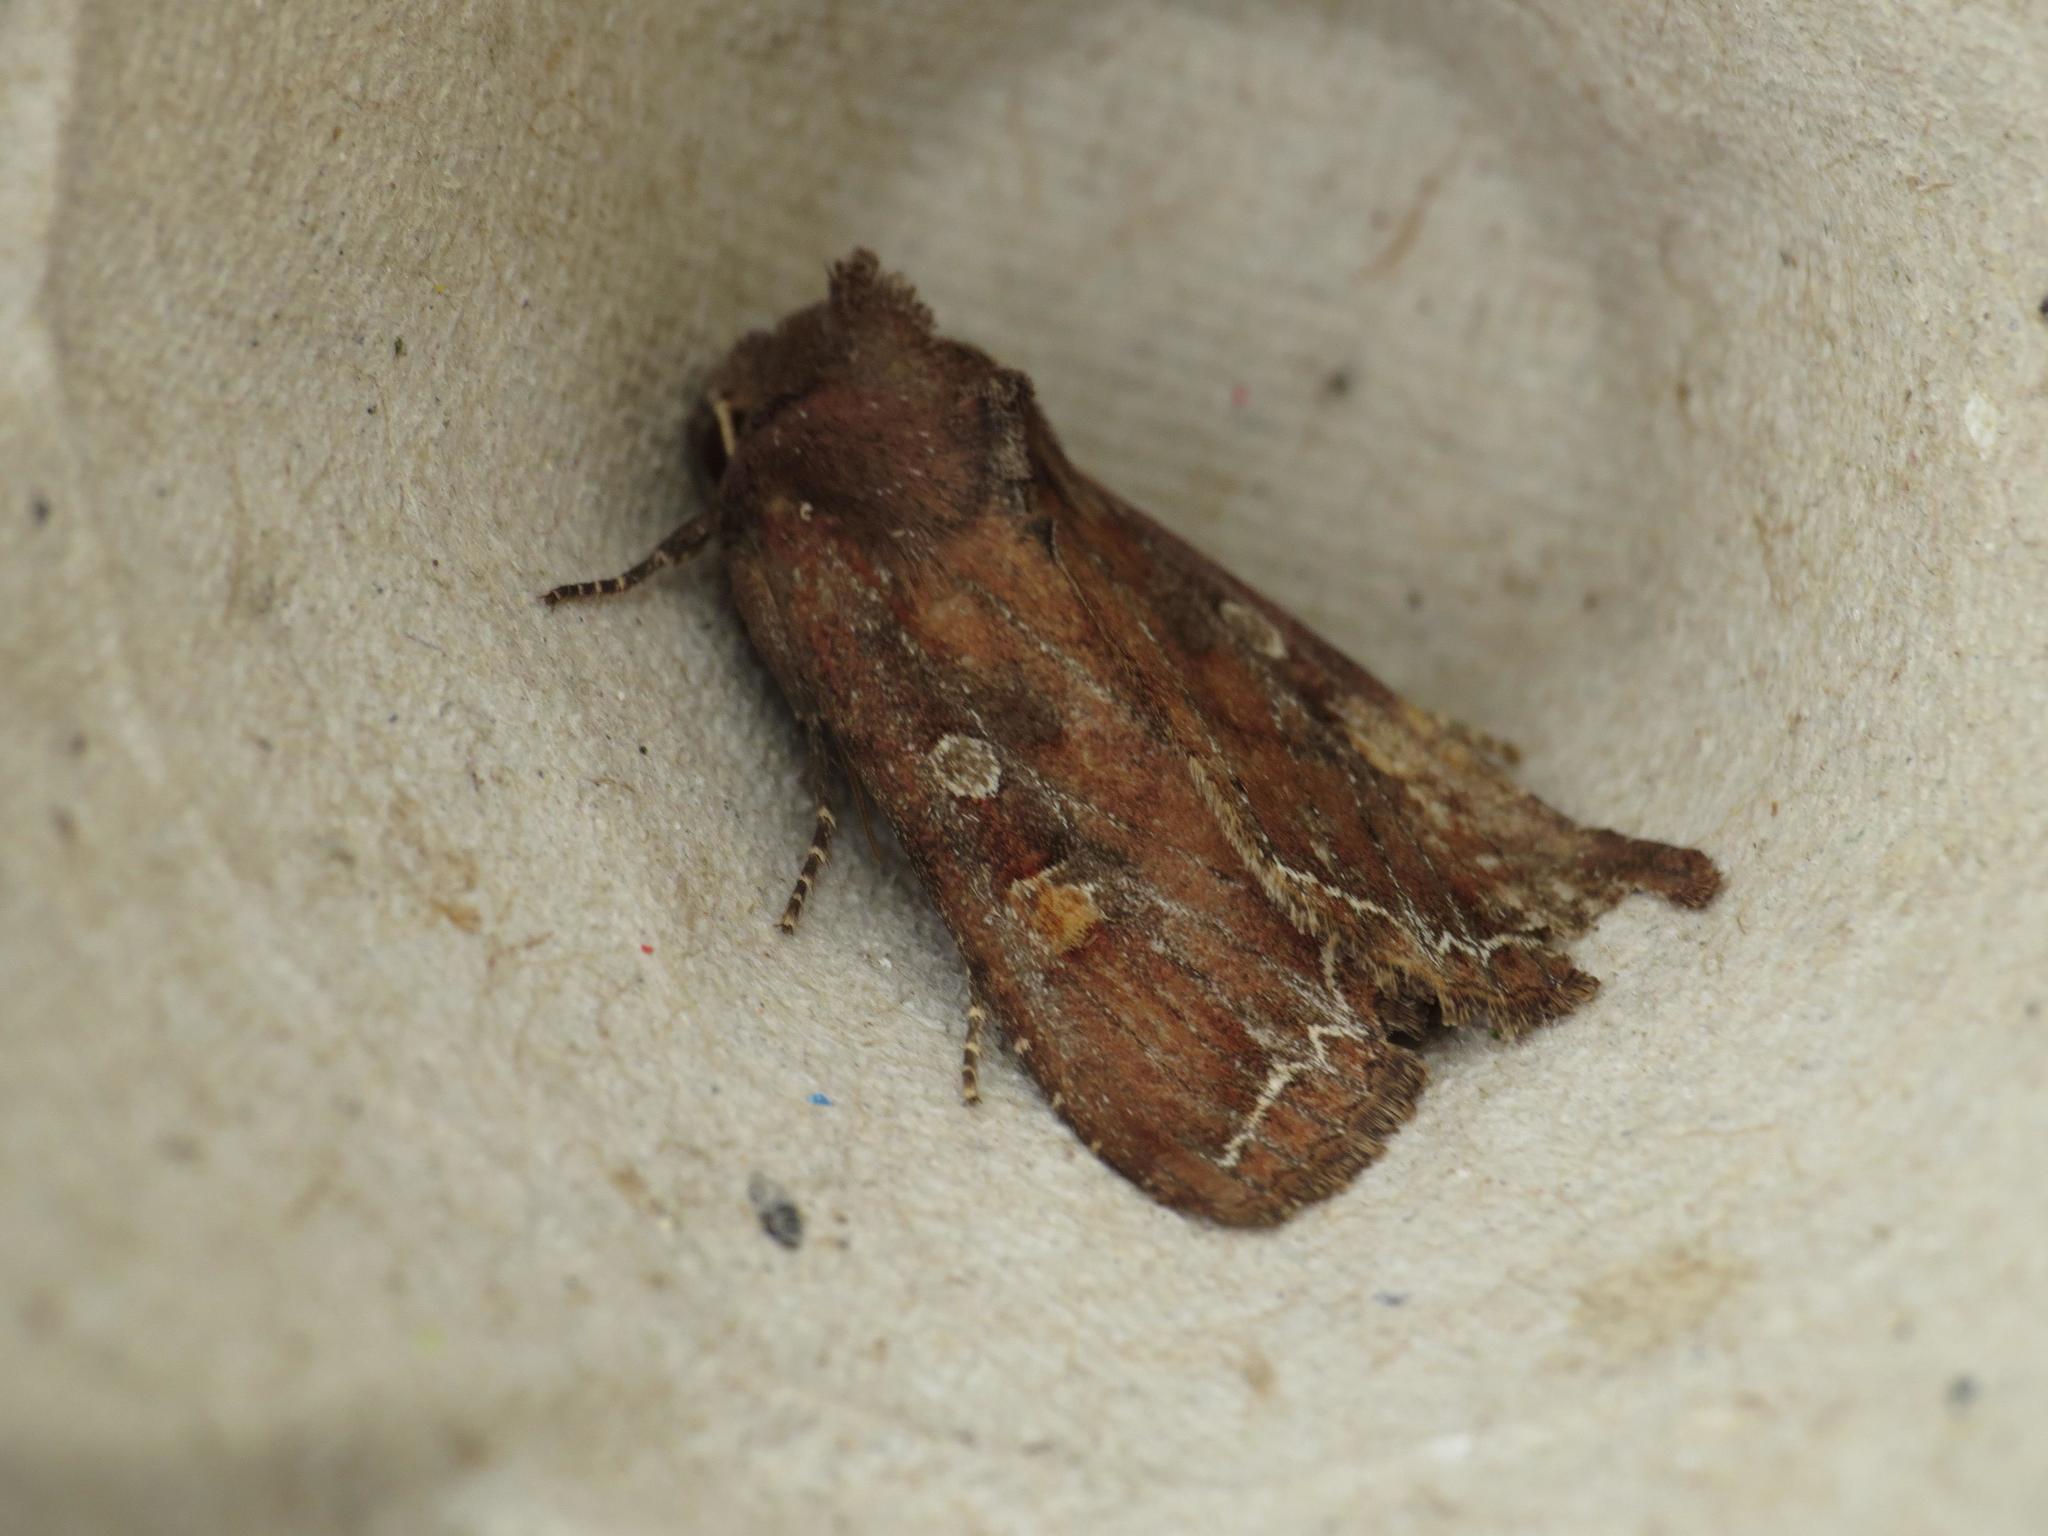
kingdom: Animalia
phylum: Arthropoda
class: Insecta
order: Lepidoptera
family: Noctuidae
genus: Lacanobia
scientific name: Lacanobia oleracea
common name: Bright-line brown-eye
